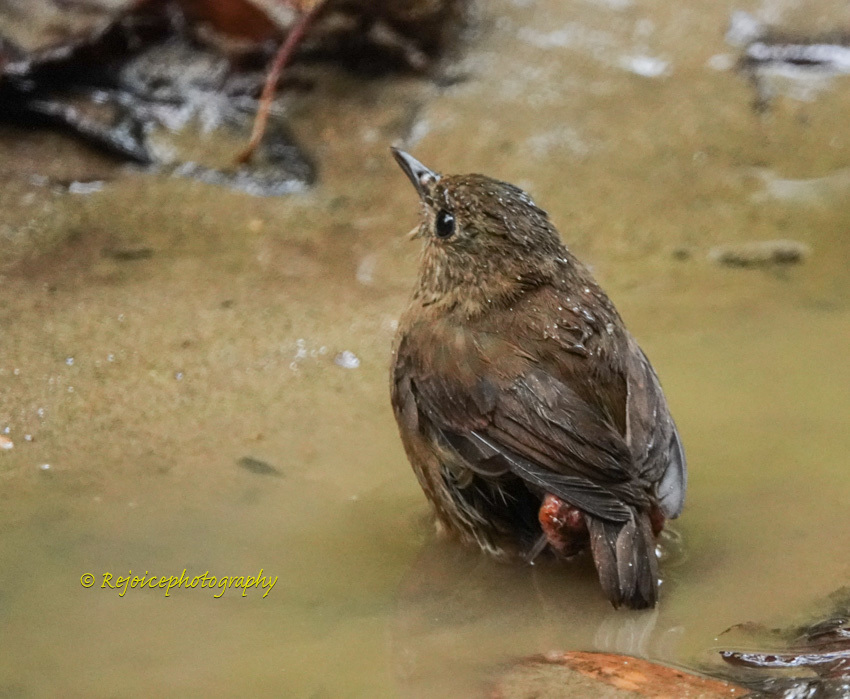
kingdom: Animalia
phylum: Chordata
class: Aves
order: Passeriformes
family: Muscicapidae
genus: Brachypteryx
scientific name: Brachypteryx leucophris
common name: Lesser shortwing
